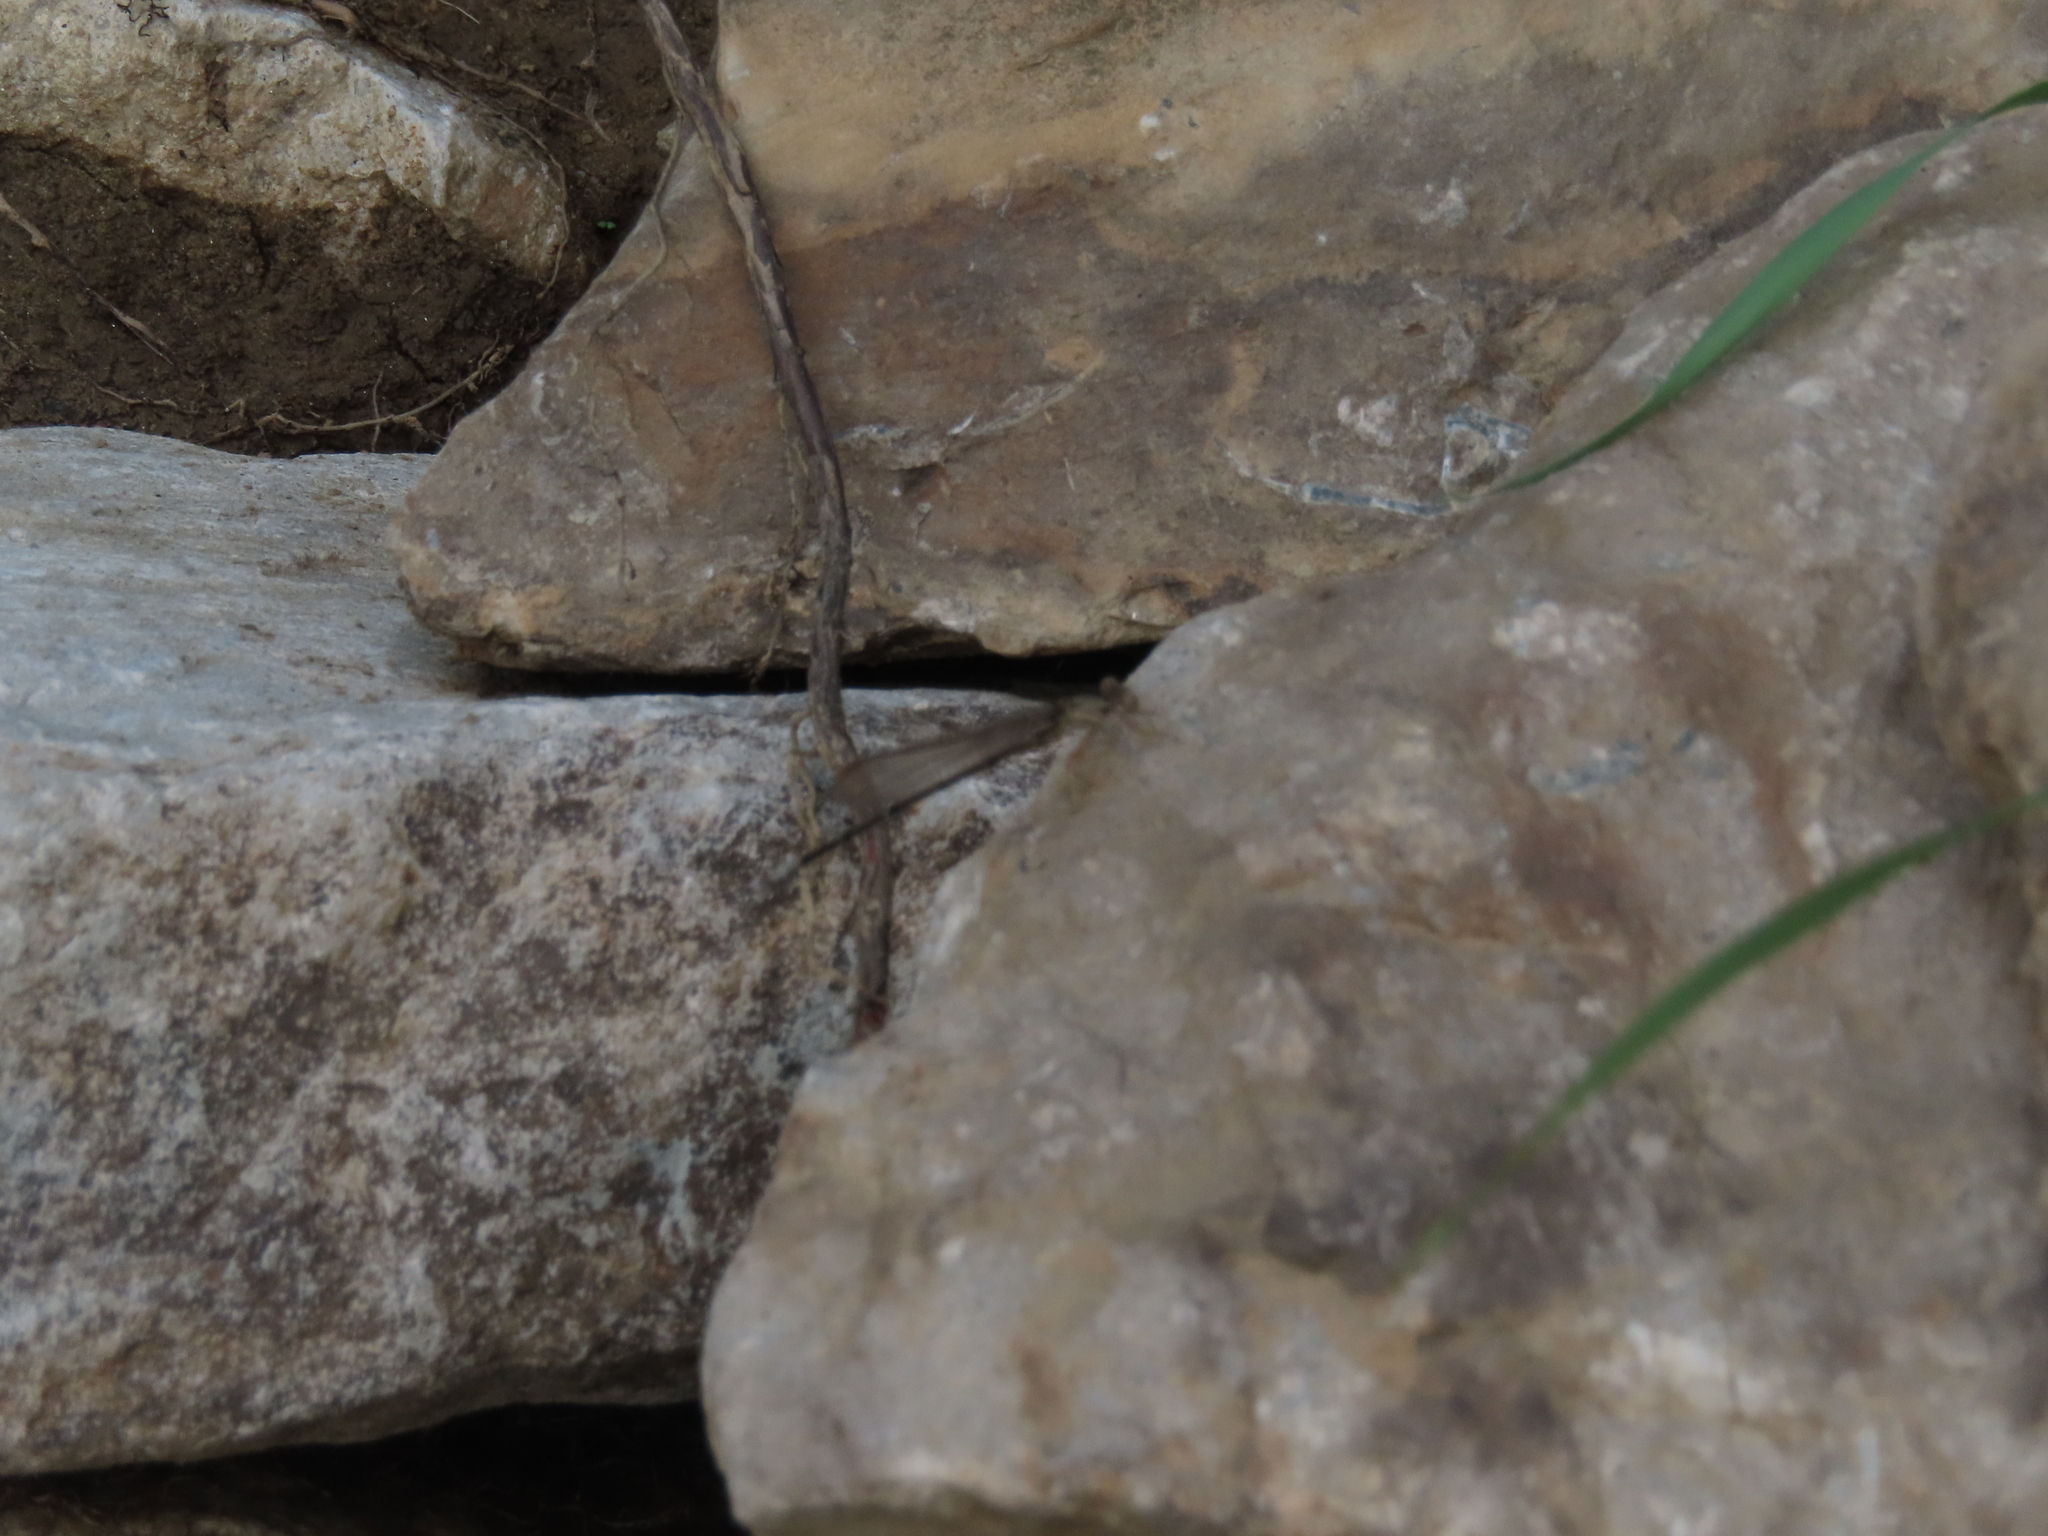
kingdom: Animalia
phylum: Arthropoda
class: Insecta
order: Odonata
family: Coenagrionidae
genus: Argia
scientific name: Argia apicalis
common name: Blue-fronted dancer
